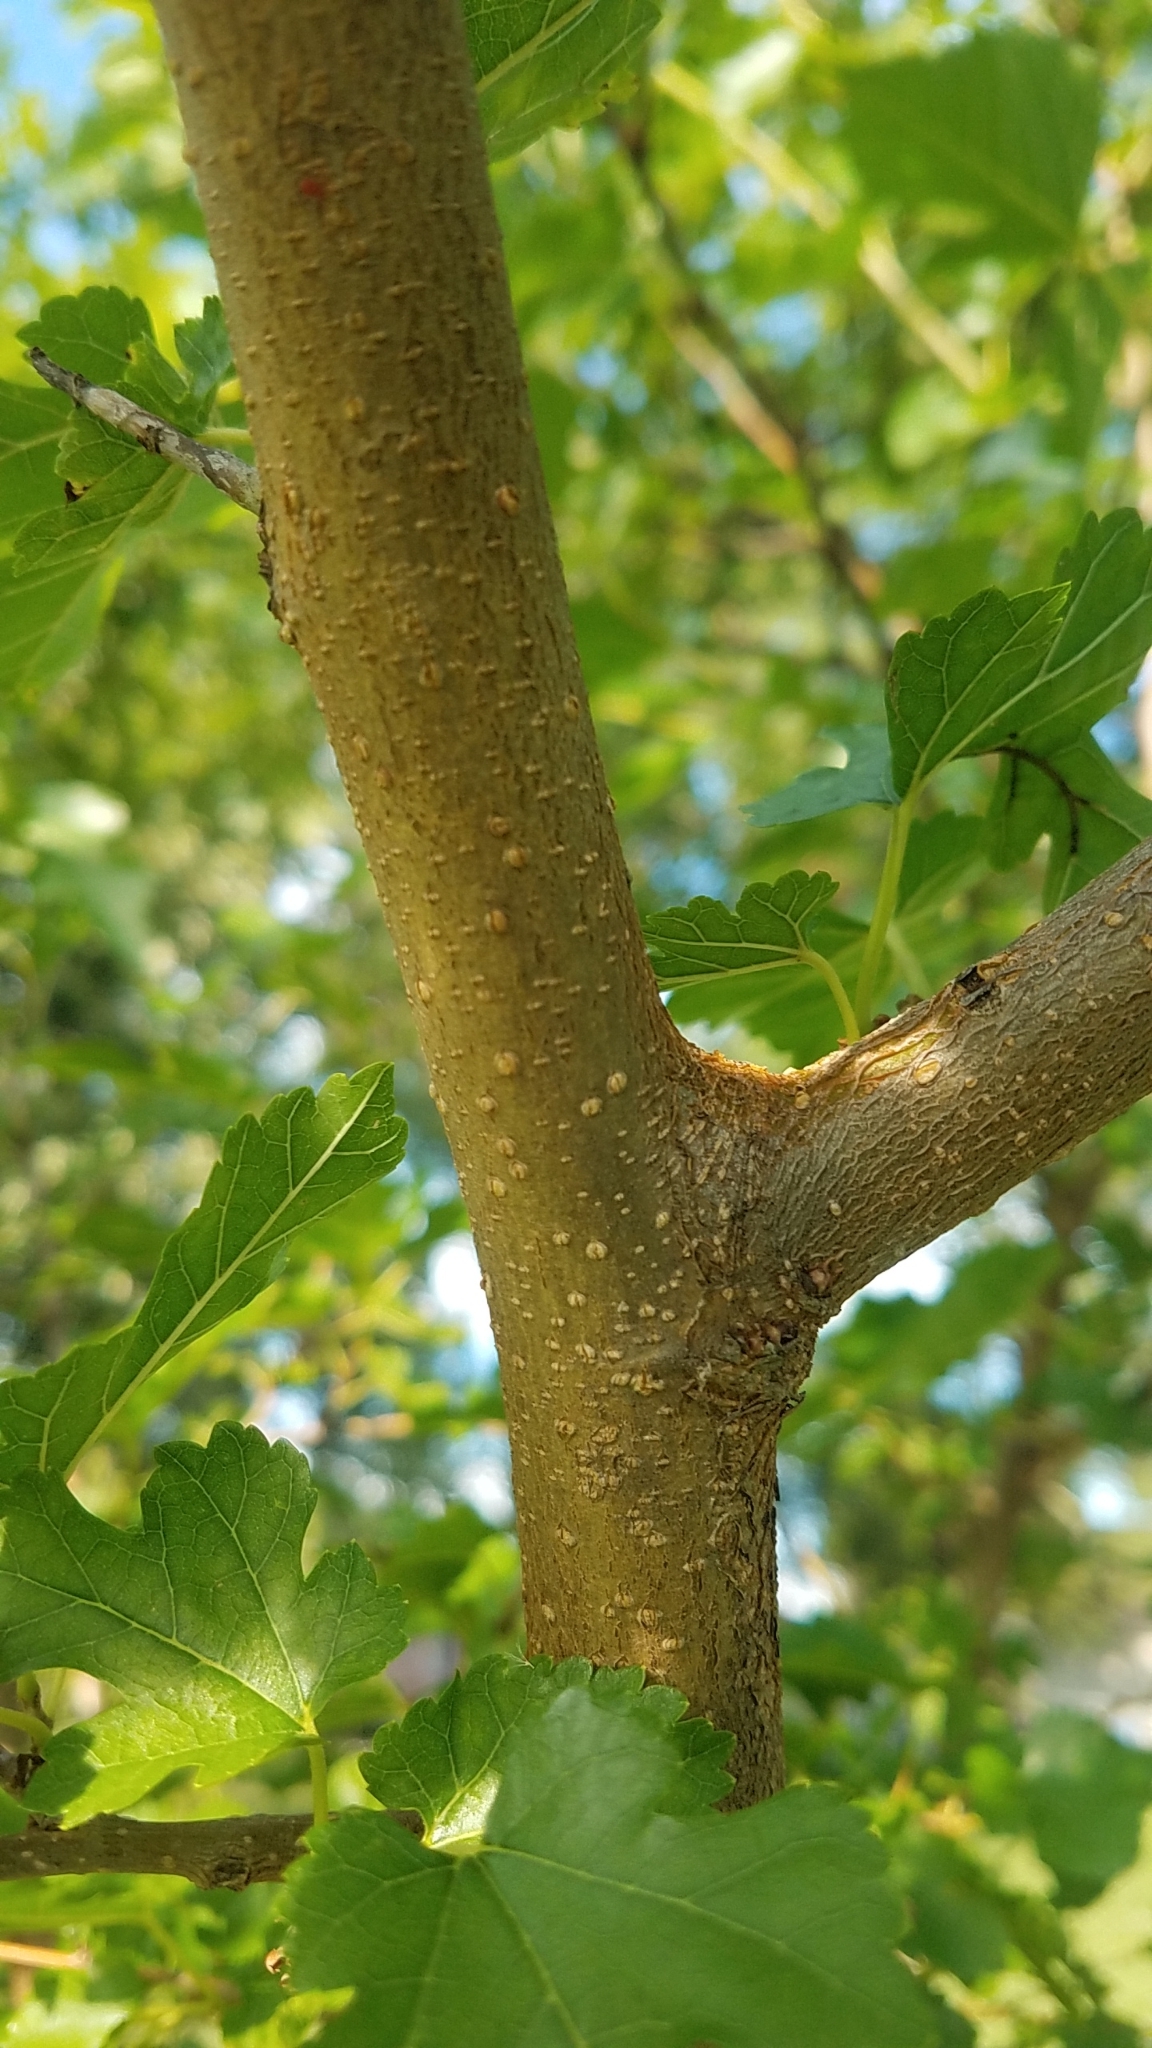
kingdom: Plantae
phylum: Tracheophyta
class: Magnoliopsida
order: Rosales
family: Moraceae
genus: Morus
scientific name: Morus alba
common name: White mulberry
